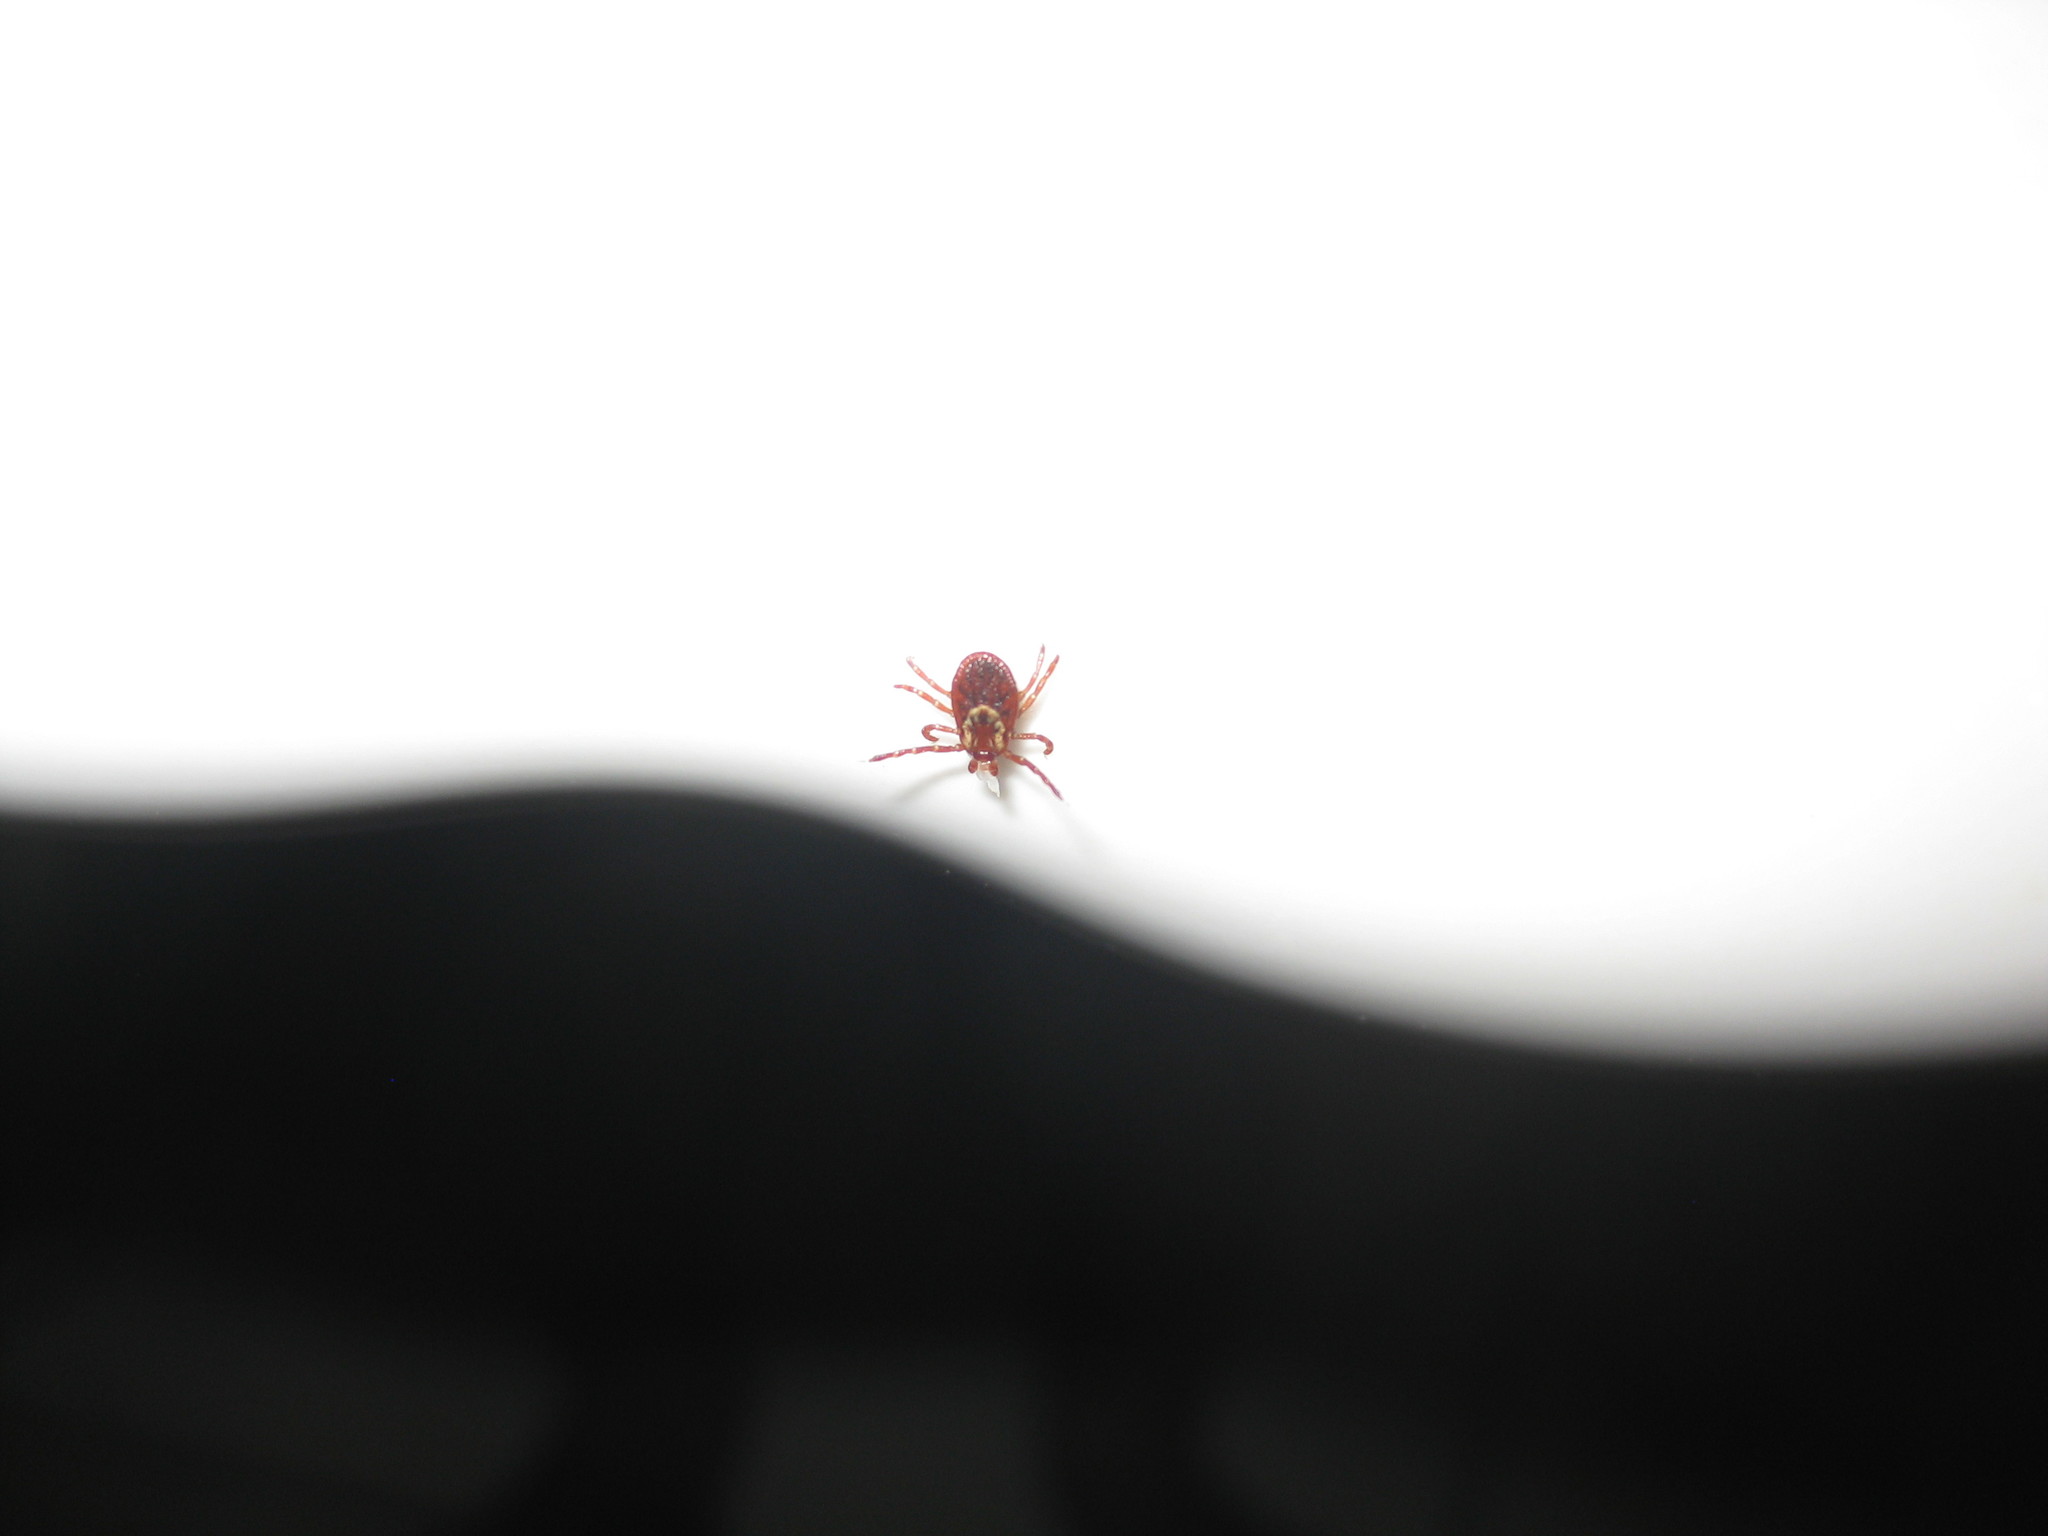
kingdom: Animalia
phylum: Arthropoda
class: Arachnida
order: Ixodida
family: Ixodidae
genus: Dermacentor
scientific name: Dermacentor variabilis
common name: American dog tick
